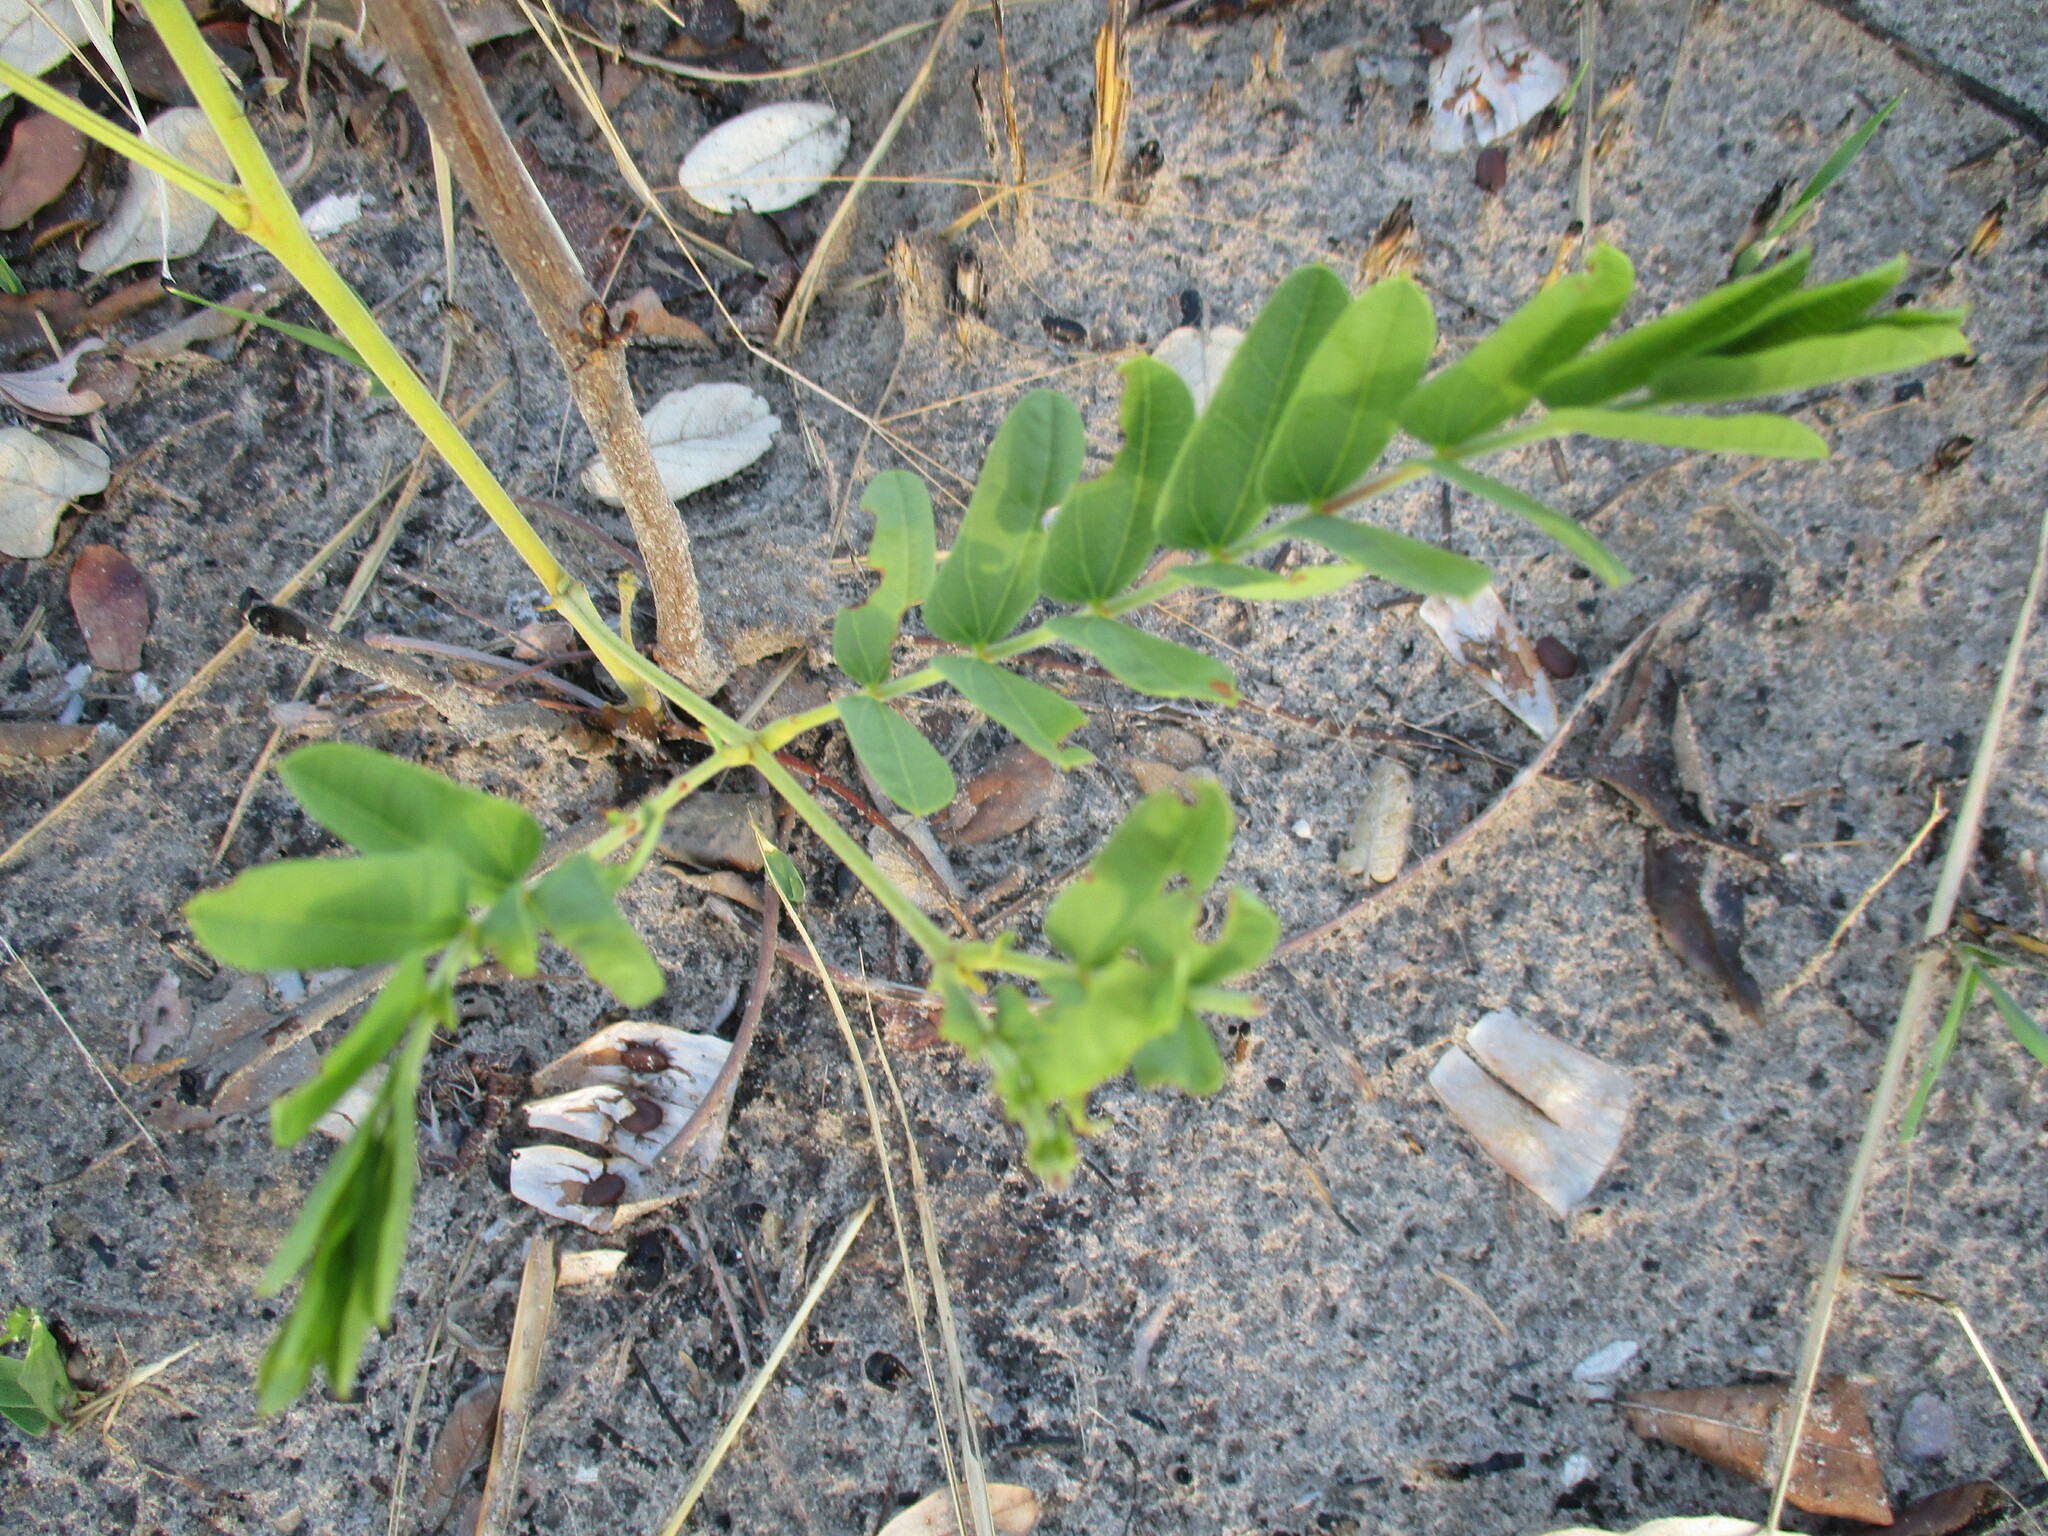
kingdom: Plantae
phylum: Tracheophyta
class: Magnoliopsida
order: Fabales
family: Fabaceae
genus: Entada
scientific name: Entada arenaria
